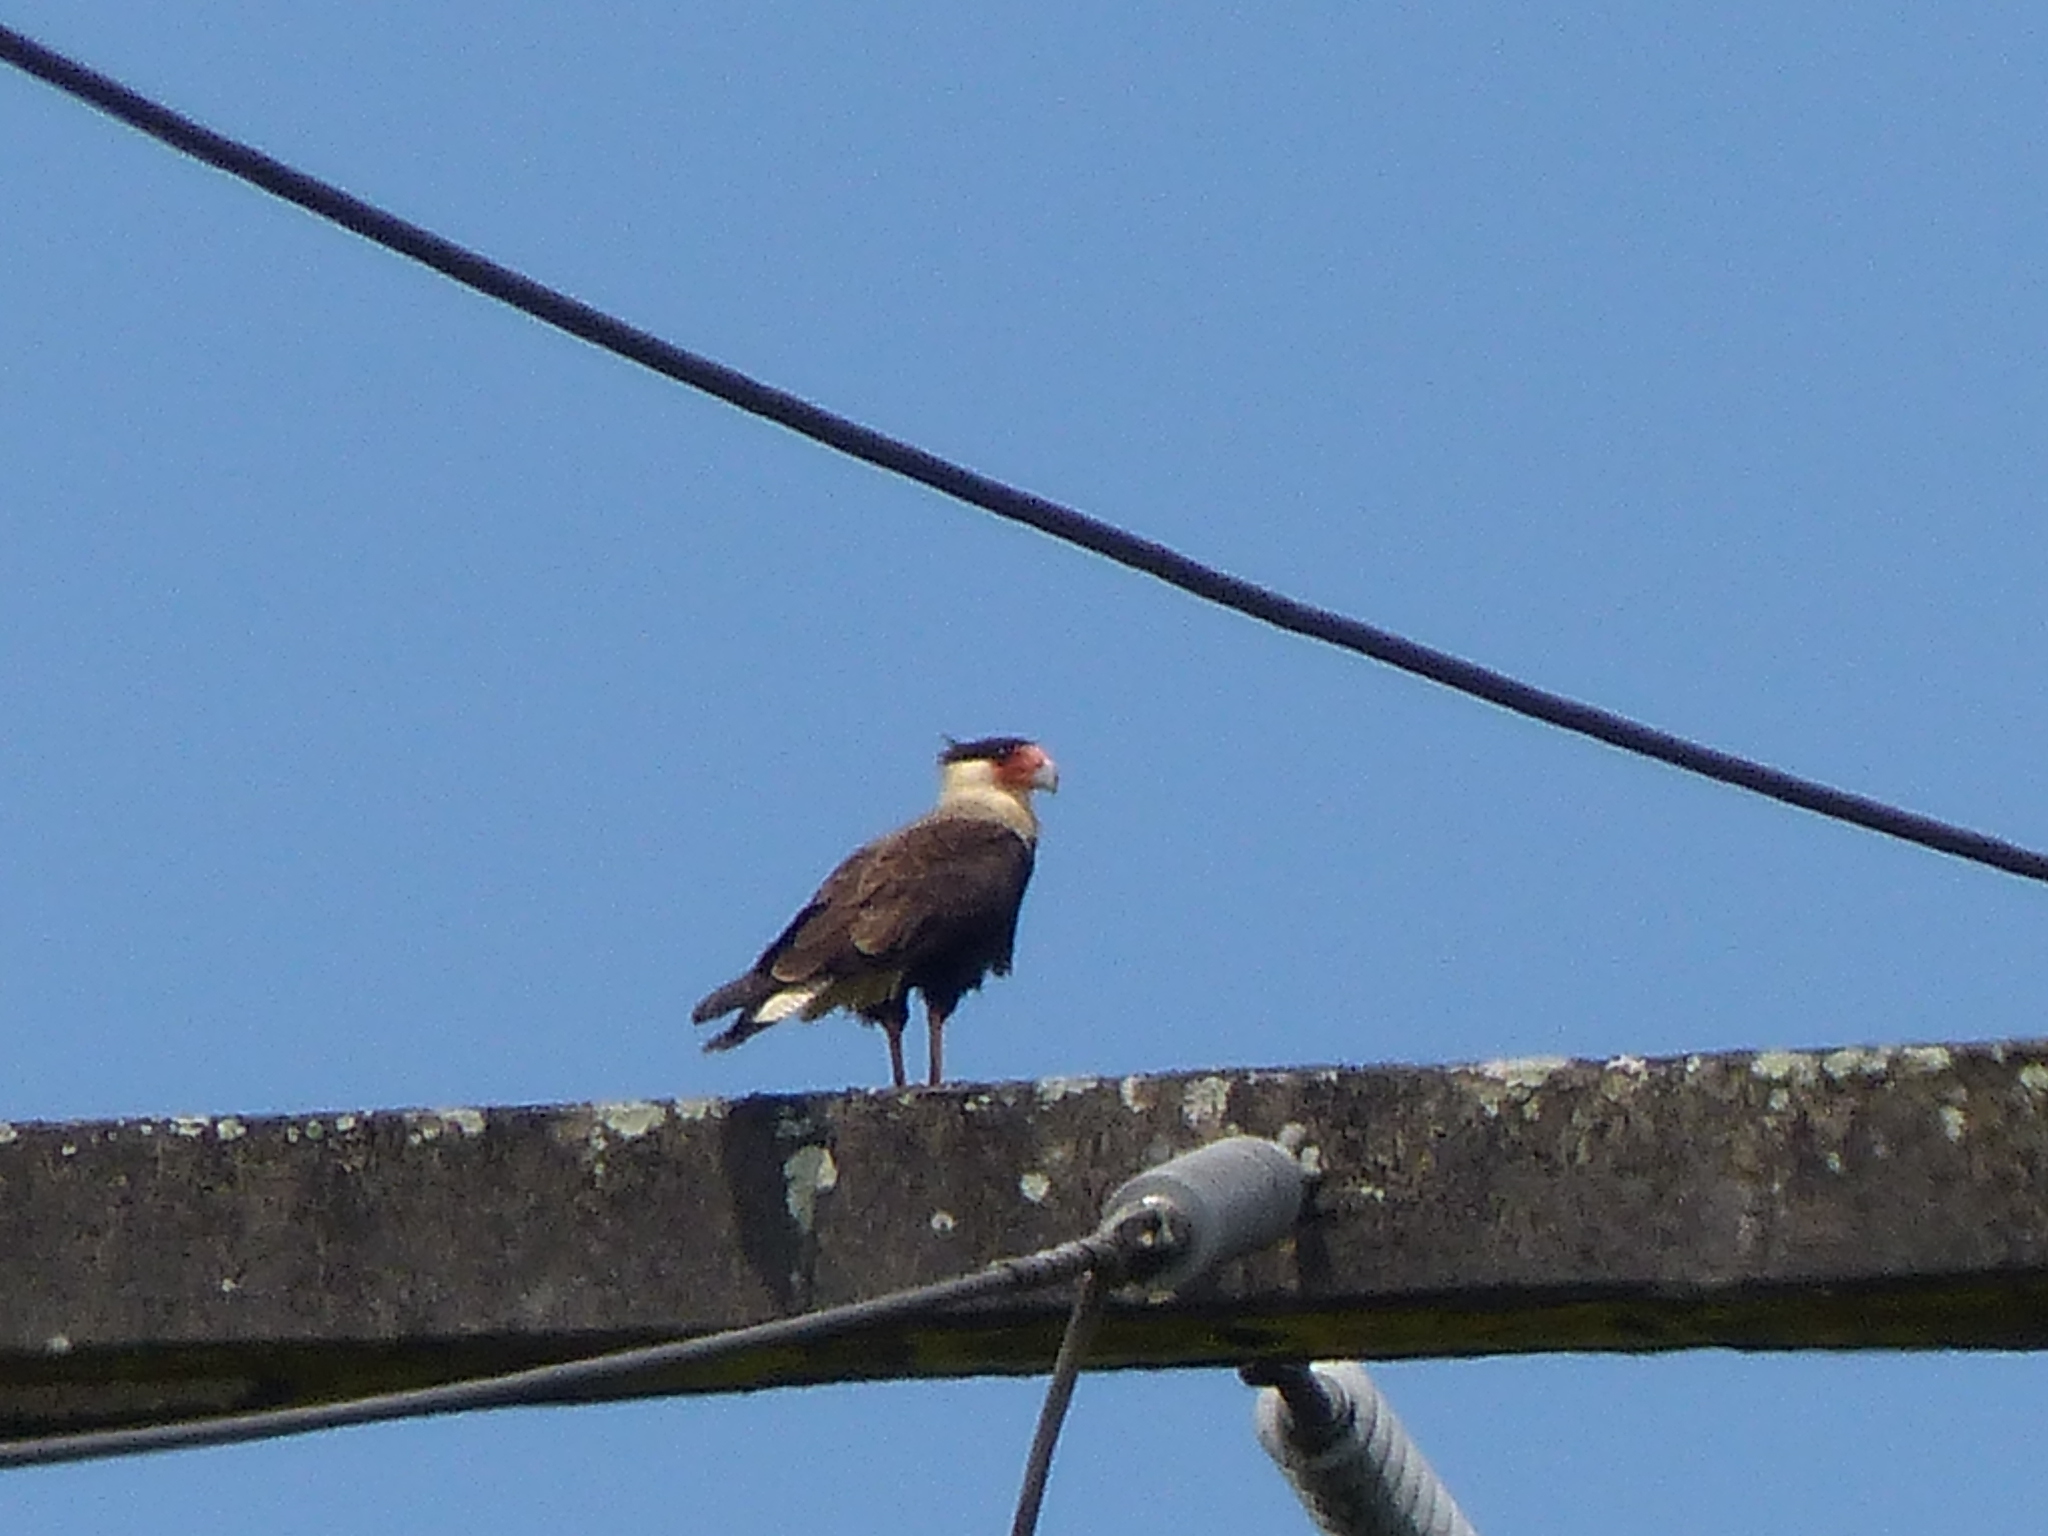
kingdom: Animalia
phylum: Chordata
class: Aves
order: Falconiformes
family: Falconidae
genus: Caracara
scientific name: Caracara plancus
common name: Southern caracara
